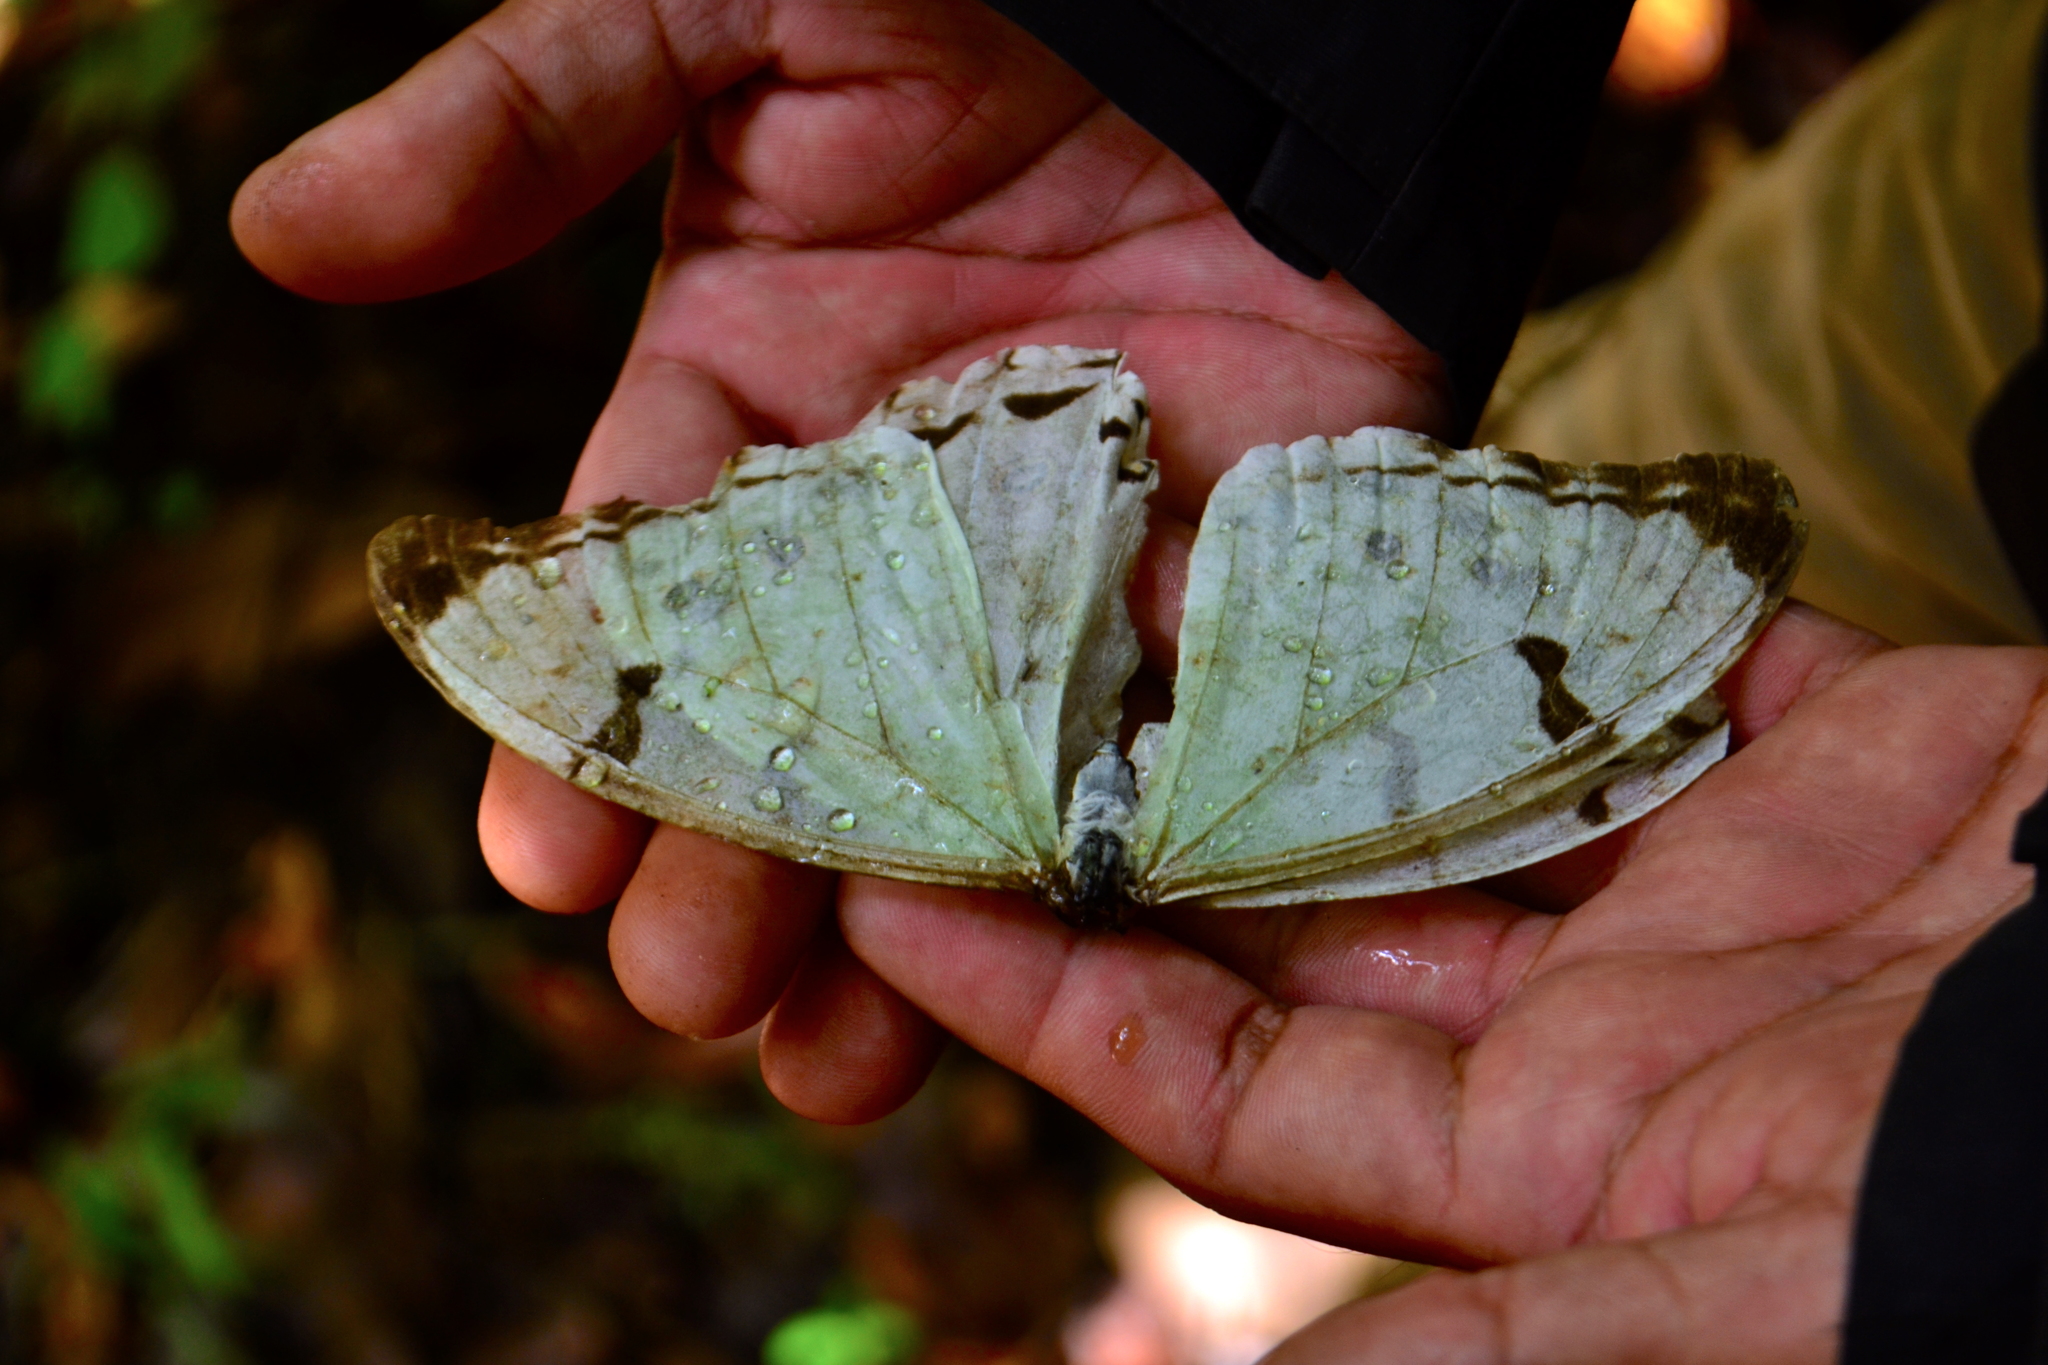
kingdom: Animalia
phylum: Arthropoda
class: Insecta
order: Lepidoptera
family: Nymphalidae
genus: Morpho
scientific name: Morpho polyphemus
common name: White morpho
